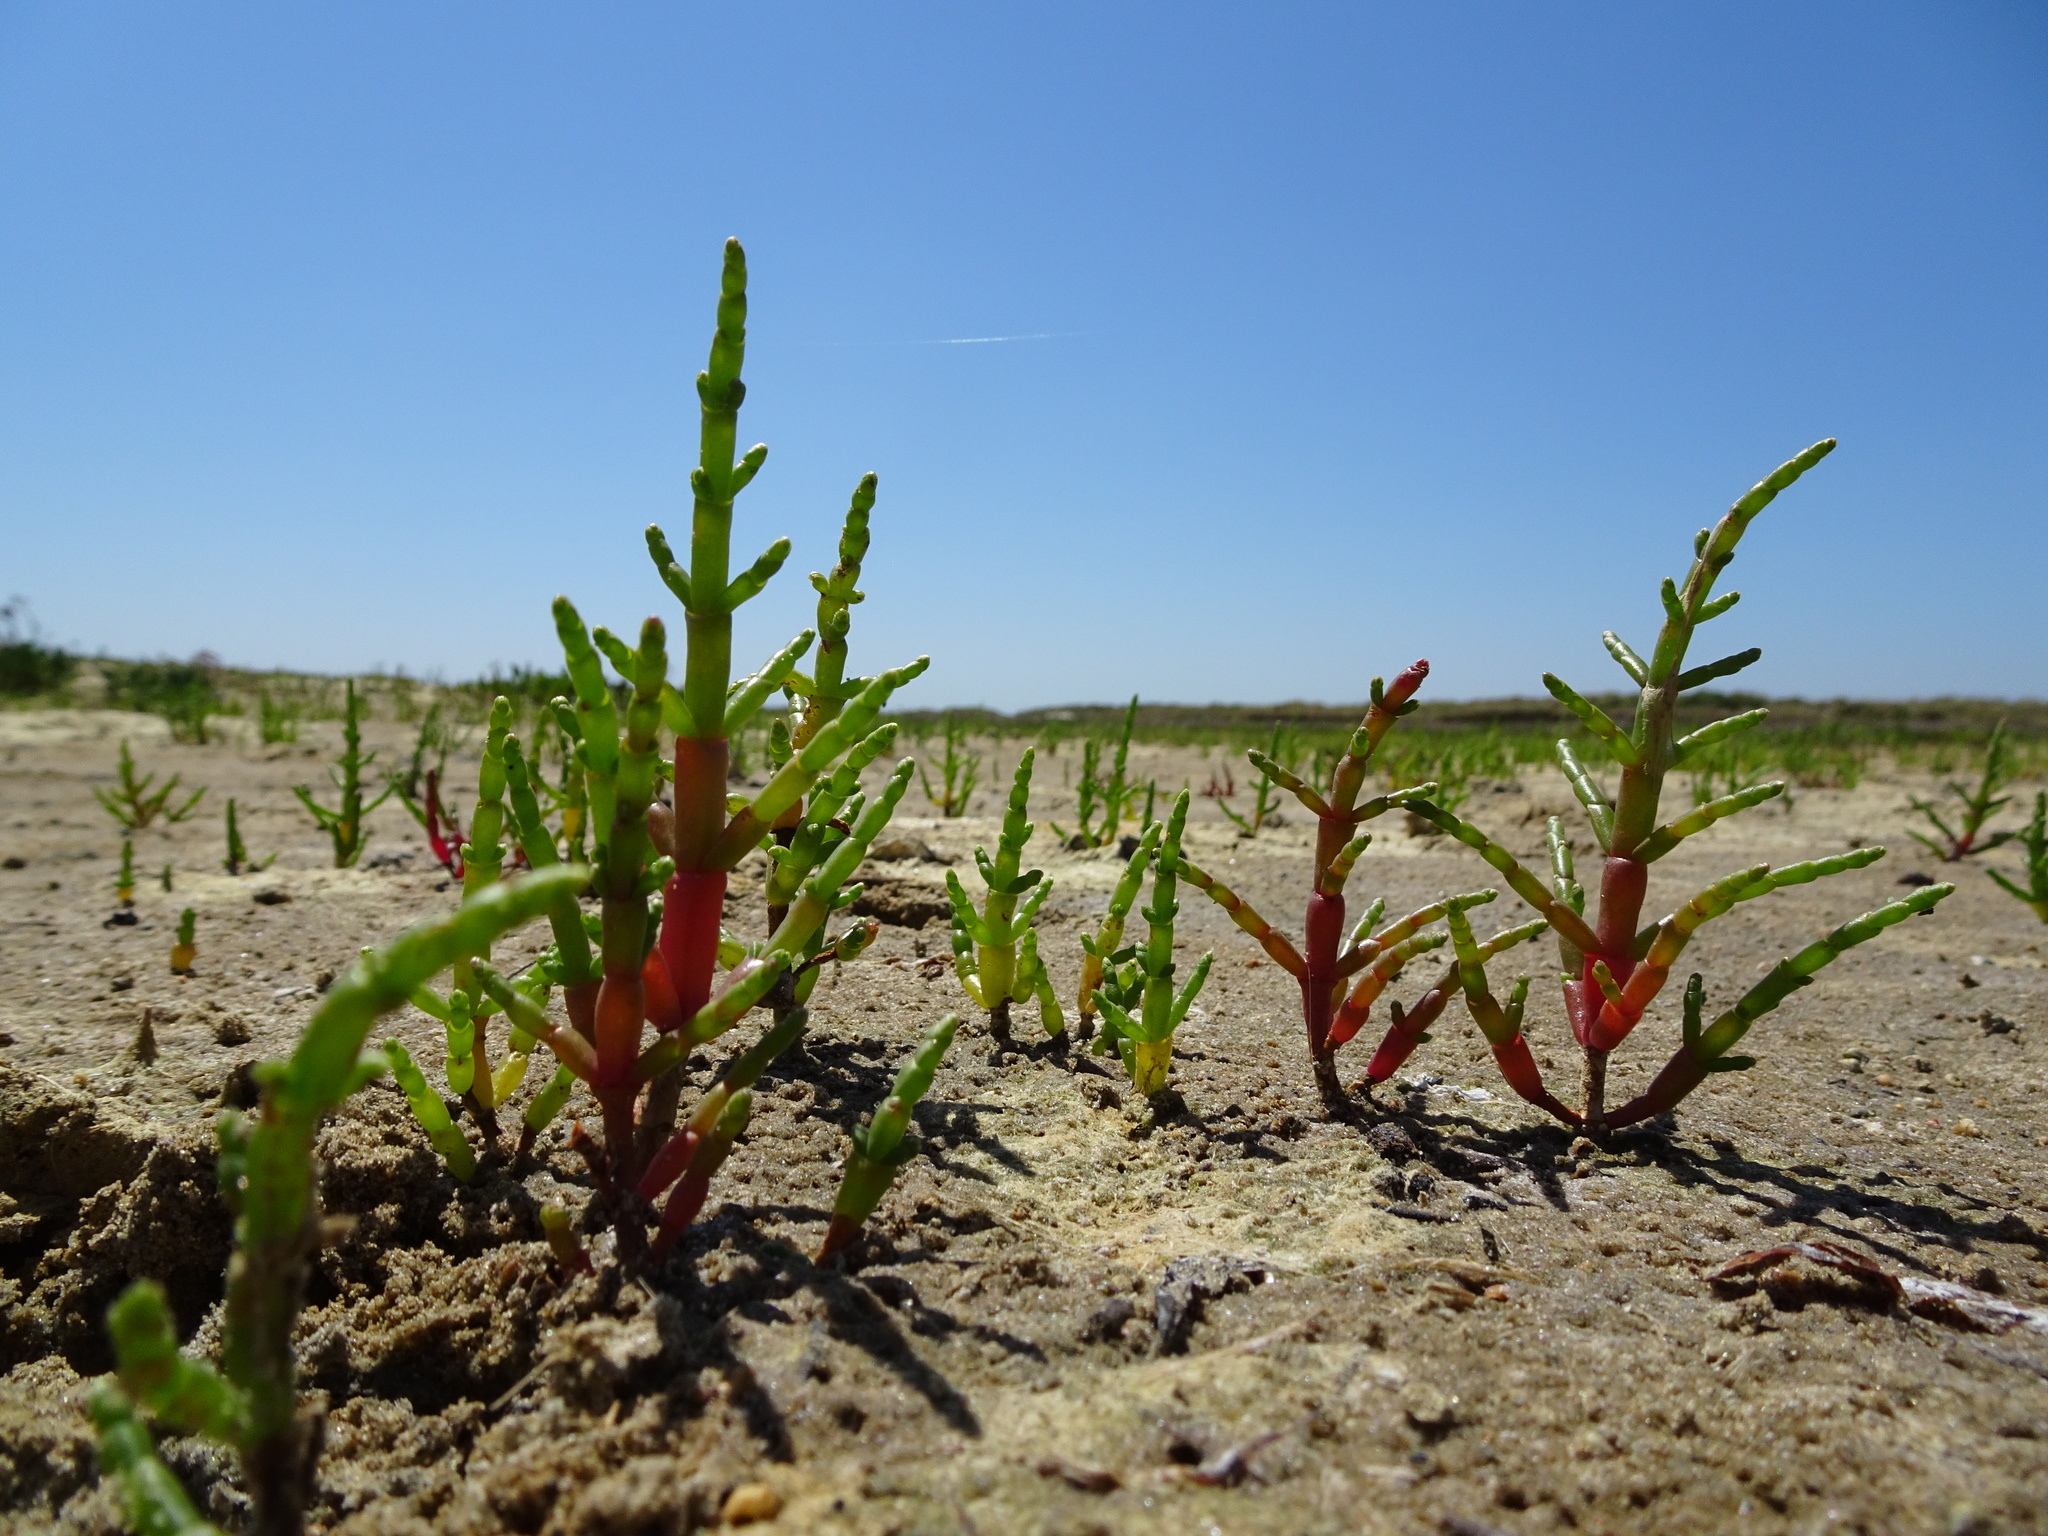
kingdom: Plantae
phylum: Tracheophyta
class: Magnoliopsida
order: Caryophyllales
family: Amaranthaceae
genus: Salicornia
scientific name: Salicornia
